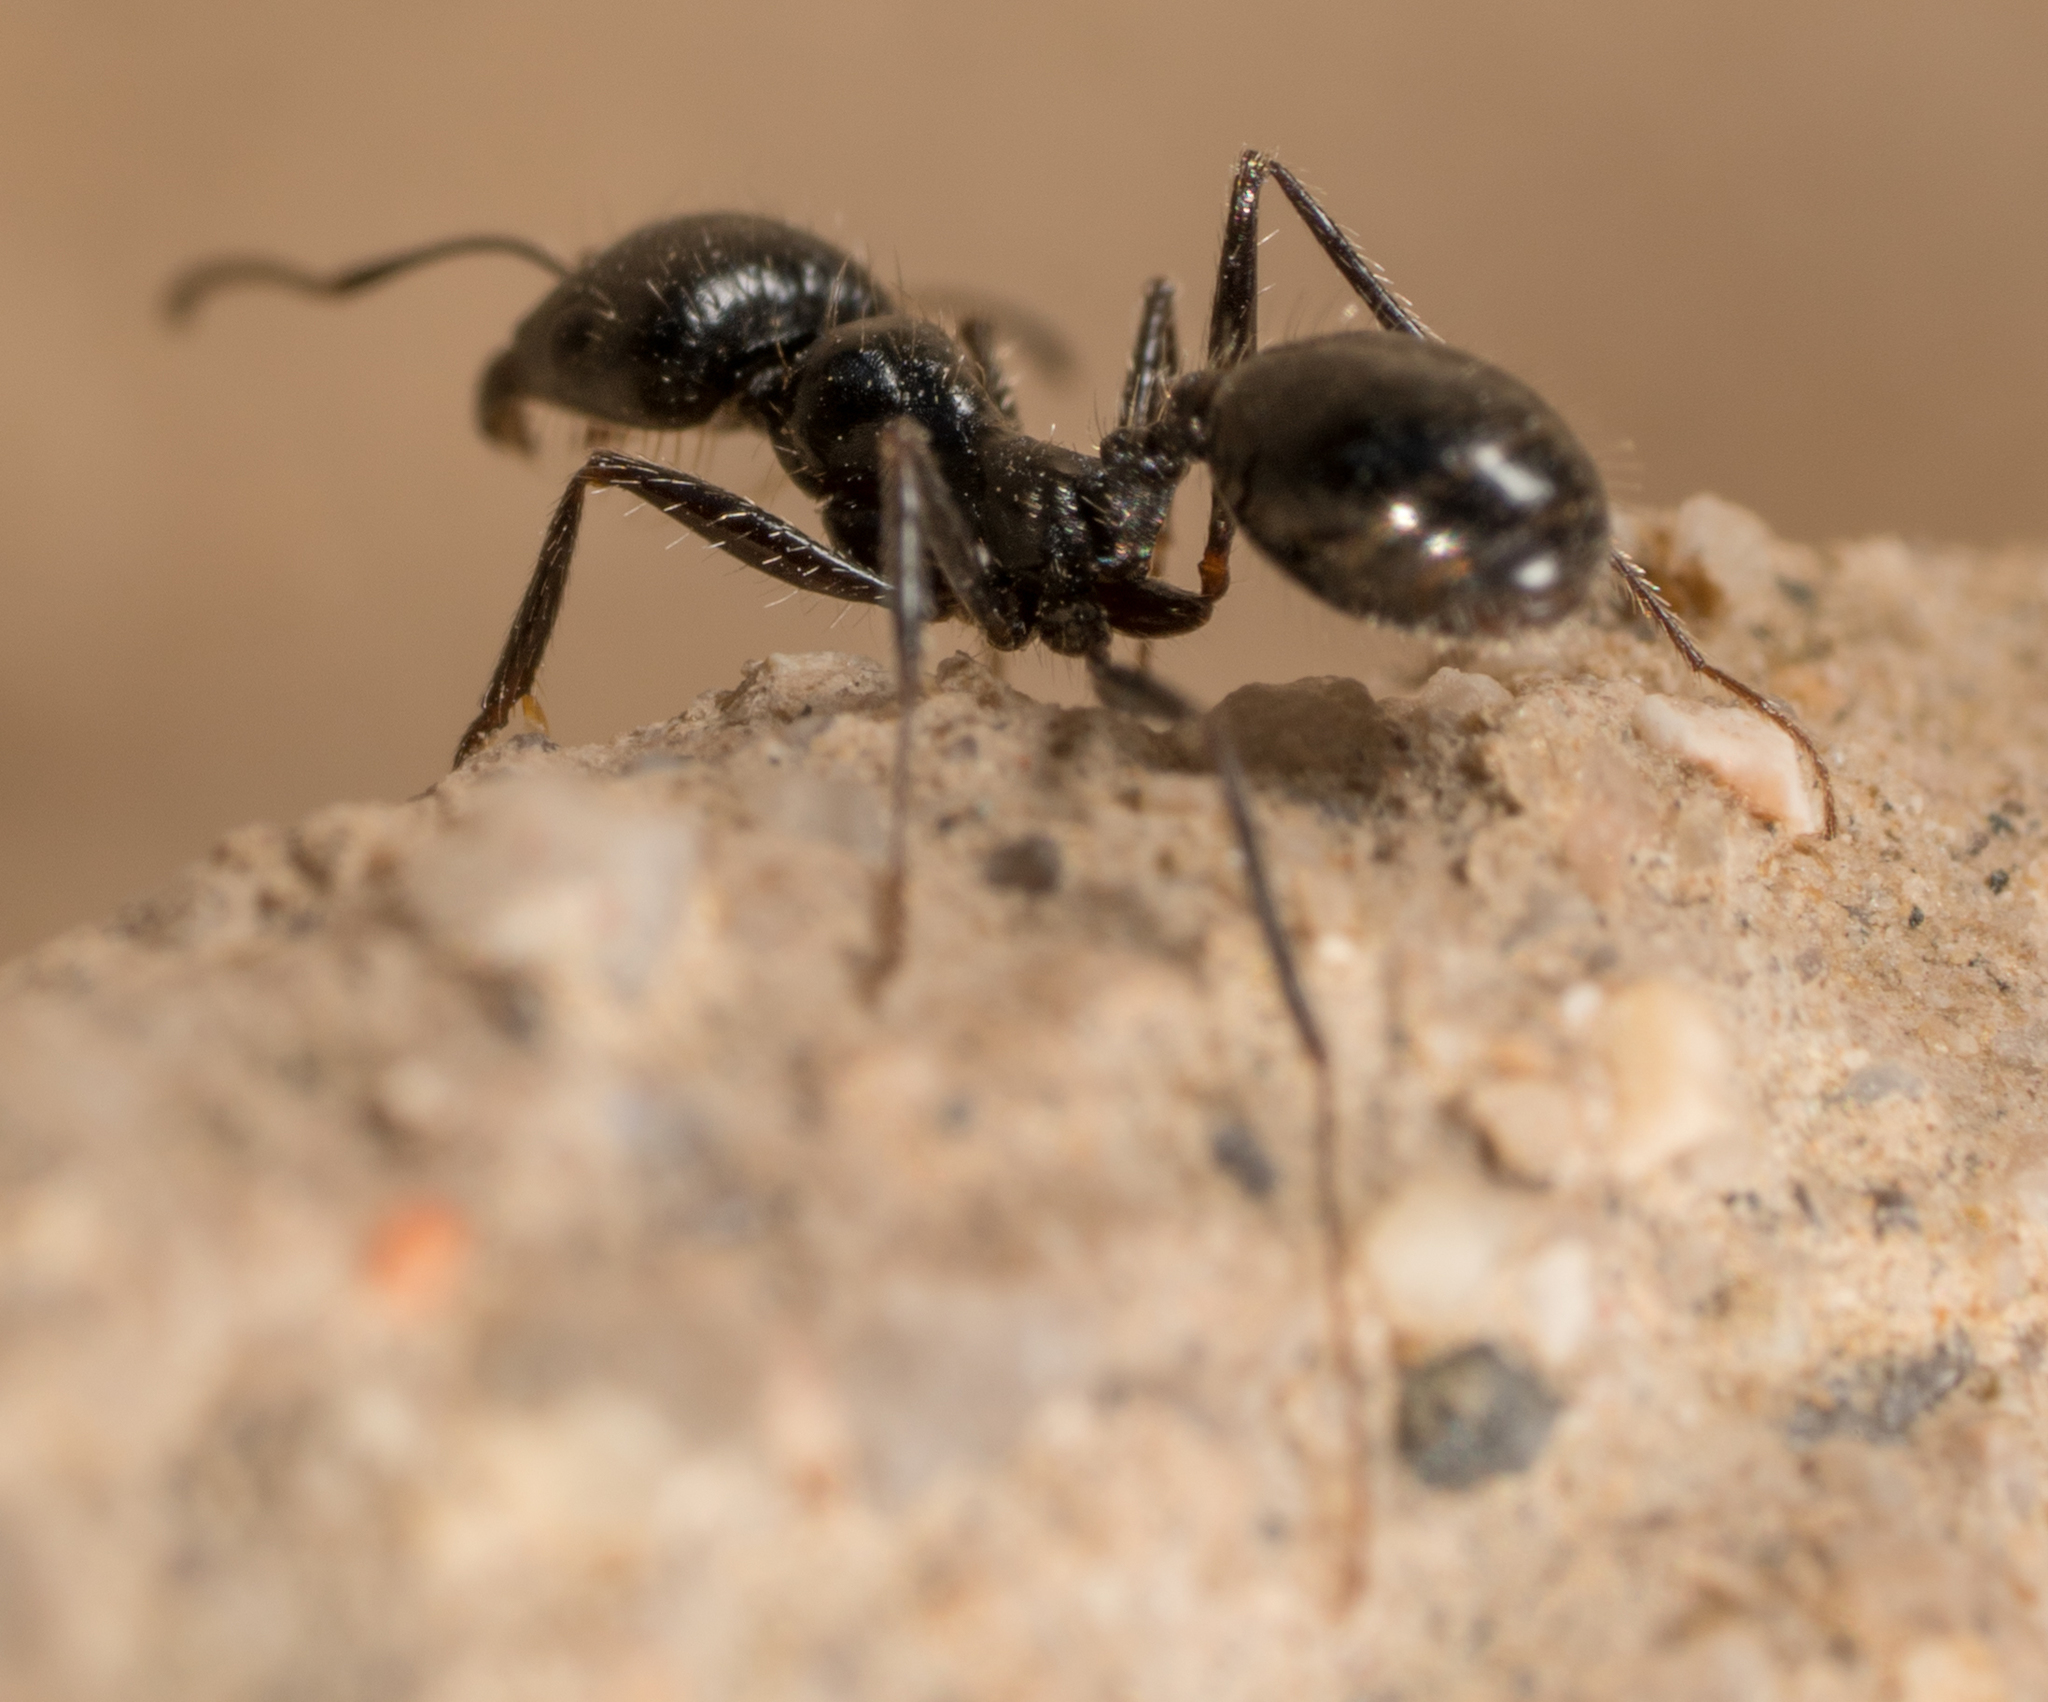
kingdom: Animalia
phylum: Arthropoda
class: Insecta
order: Hymenoptera
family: Formicidae
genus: Messor
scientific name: Messor pergandei
